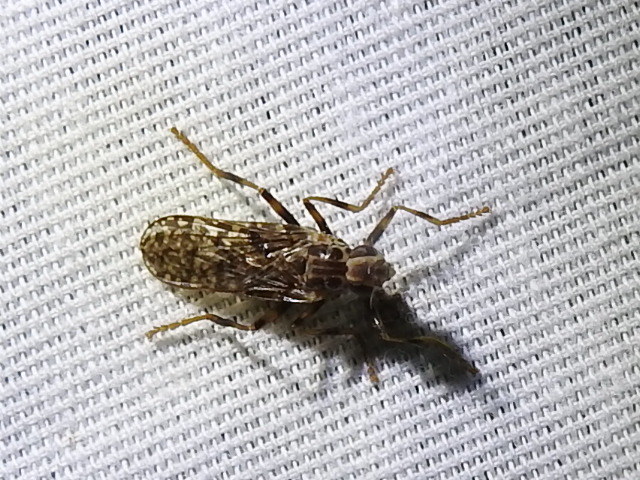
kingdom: Animalia
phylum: Arthropoda
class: Insecta
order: Diptera
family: Pyrgotidae
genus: Boreothrinax
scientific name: Boreothrinax
